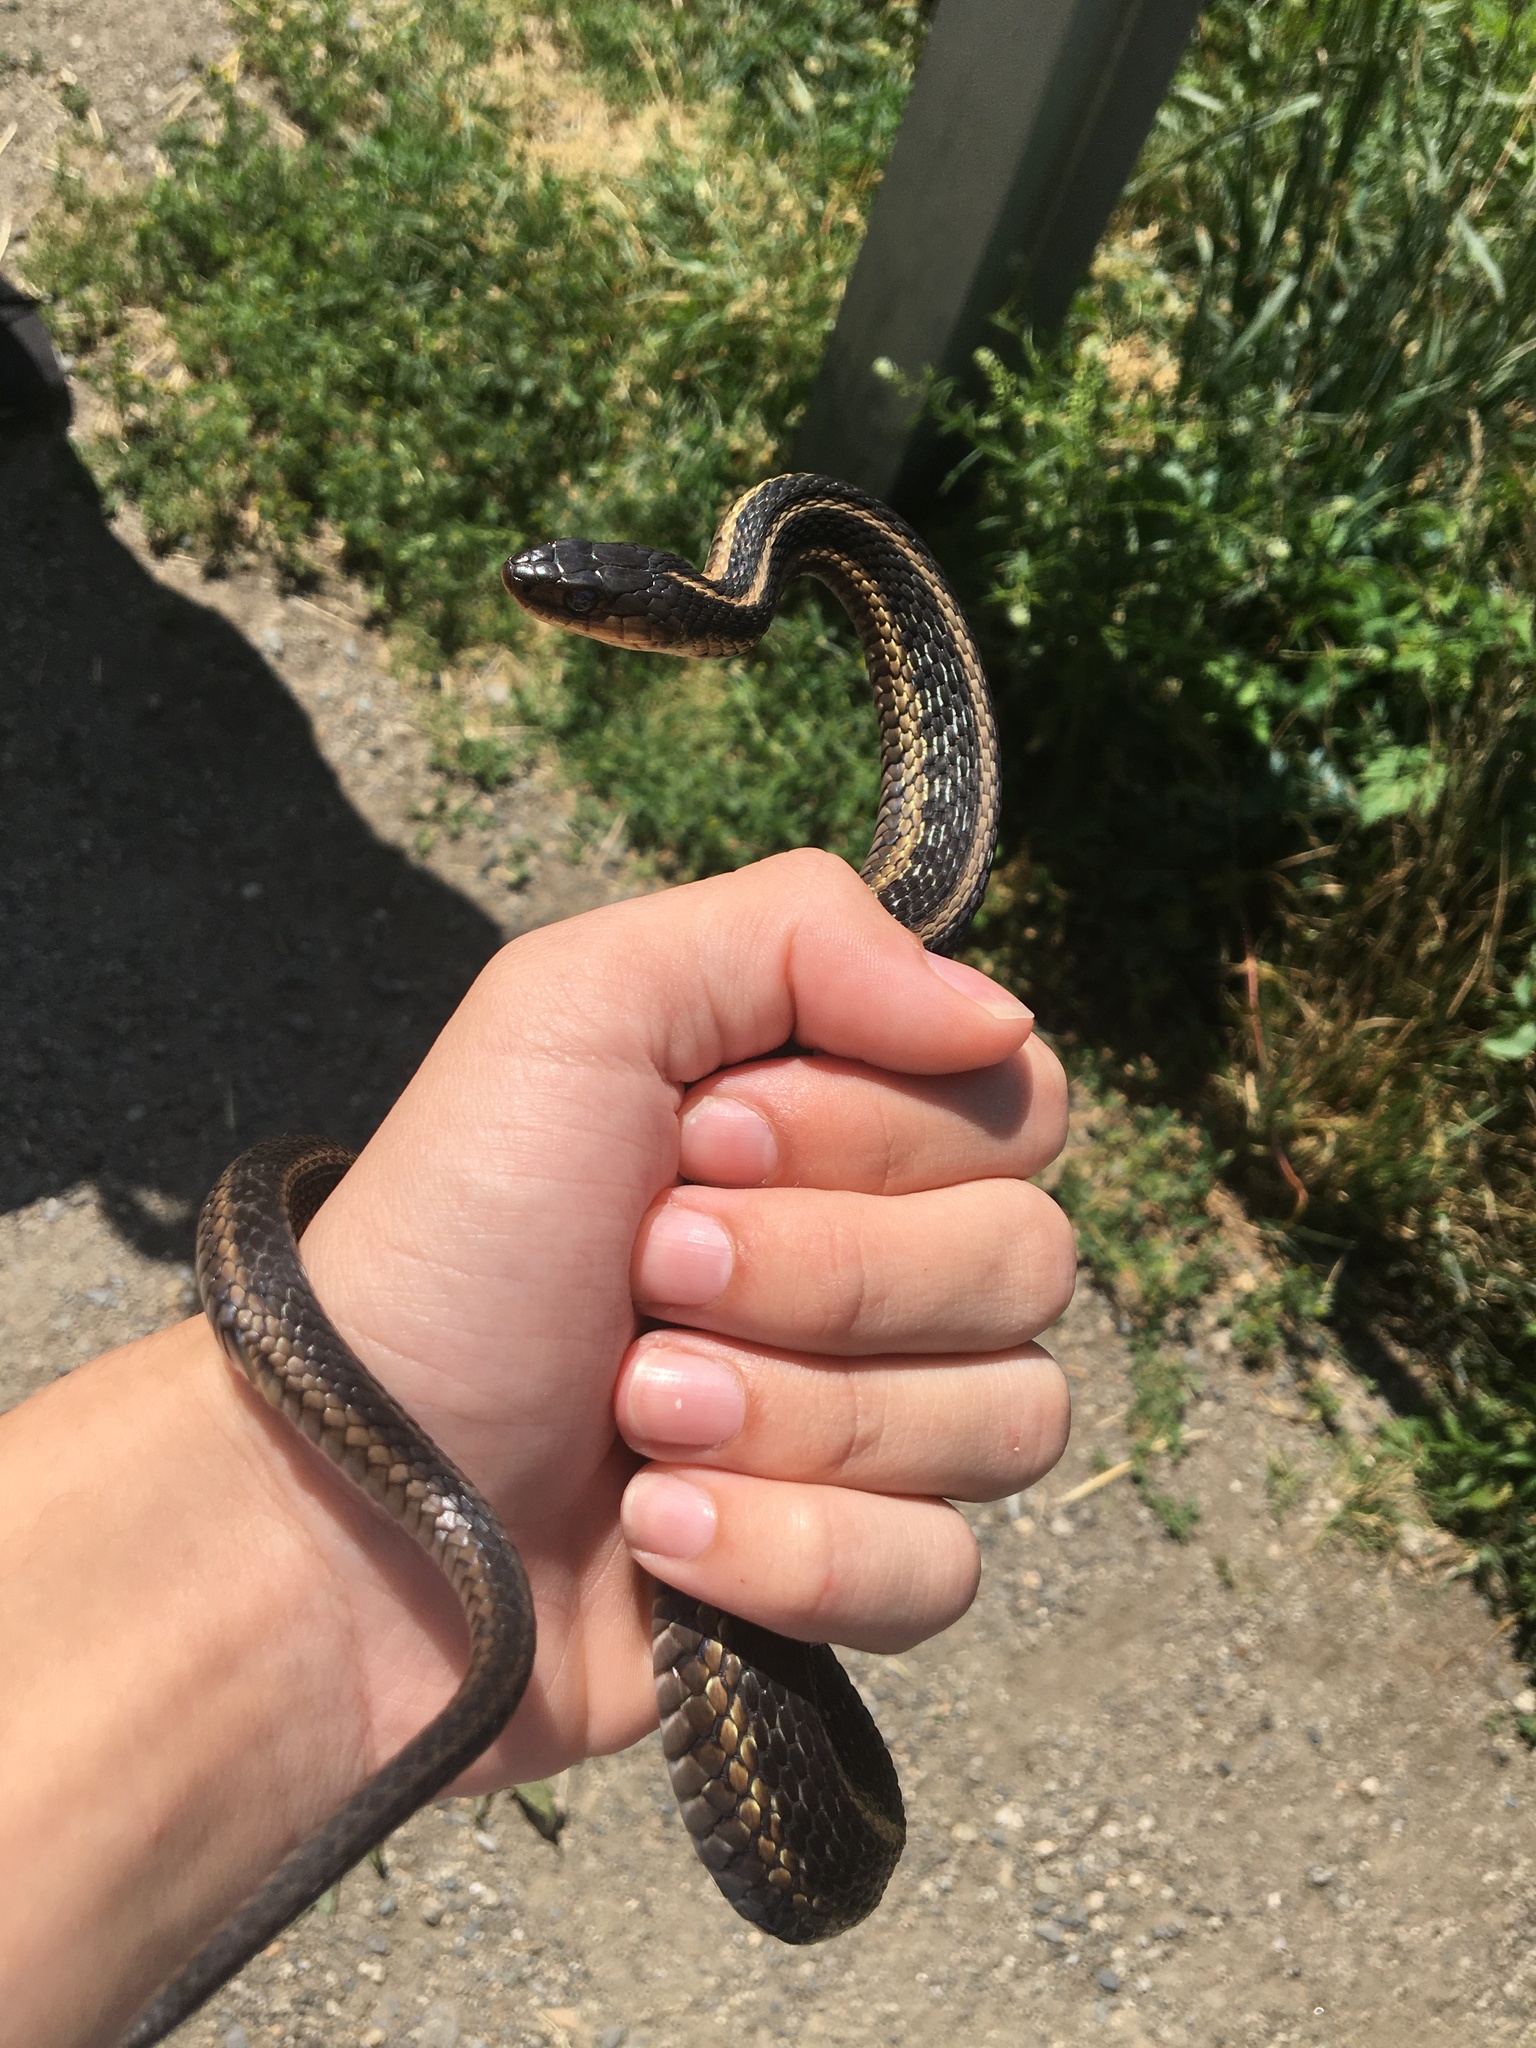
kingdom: Animalia
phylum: Chordata
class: Squamata
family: Colubridae
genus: Thamnophis
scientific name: Thamnophis sirtalis
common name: Common garter snake
